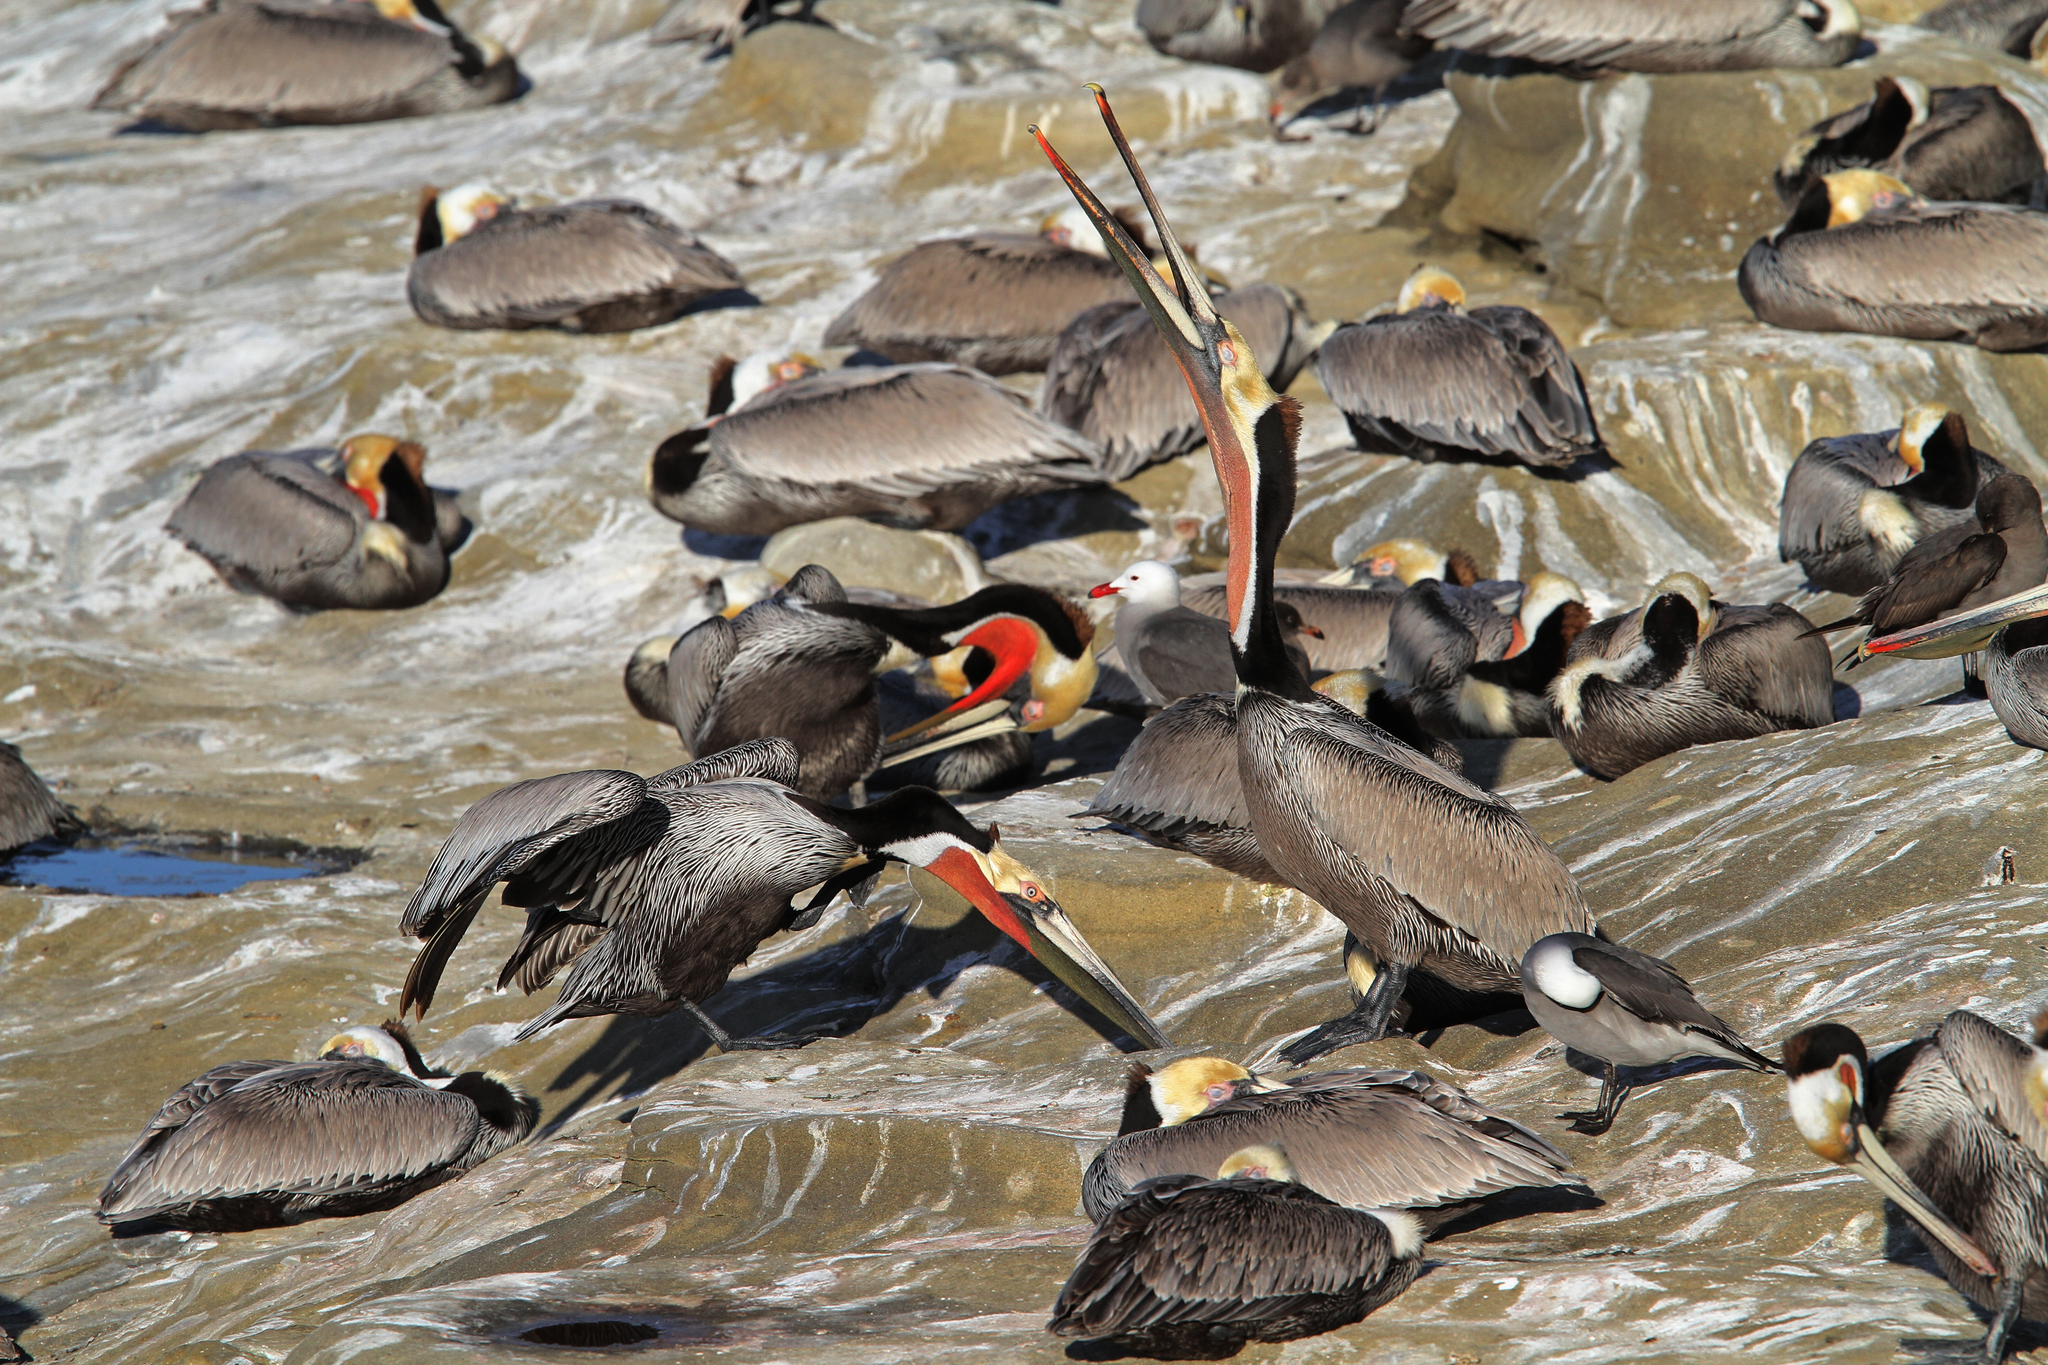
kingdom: Animalia
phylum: Chordata
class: Aves
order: Pelecaniformes
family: Pelecanidae
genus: Pelecanus
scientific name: Pelecanus occidentalis
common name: Brown pelican
